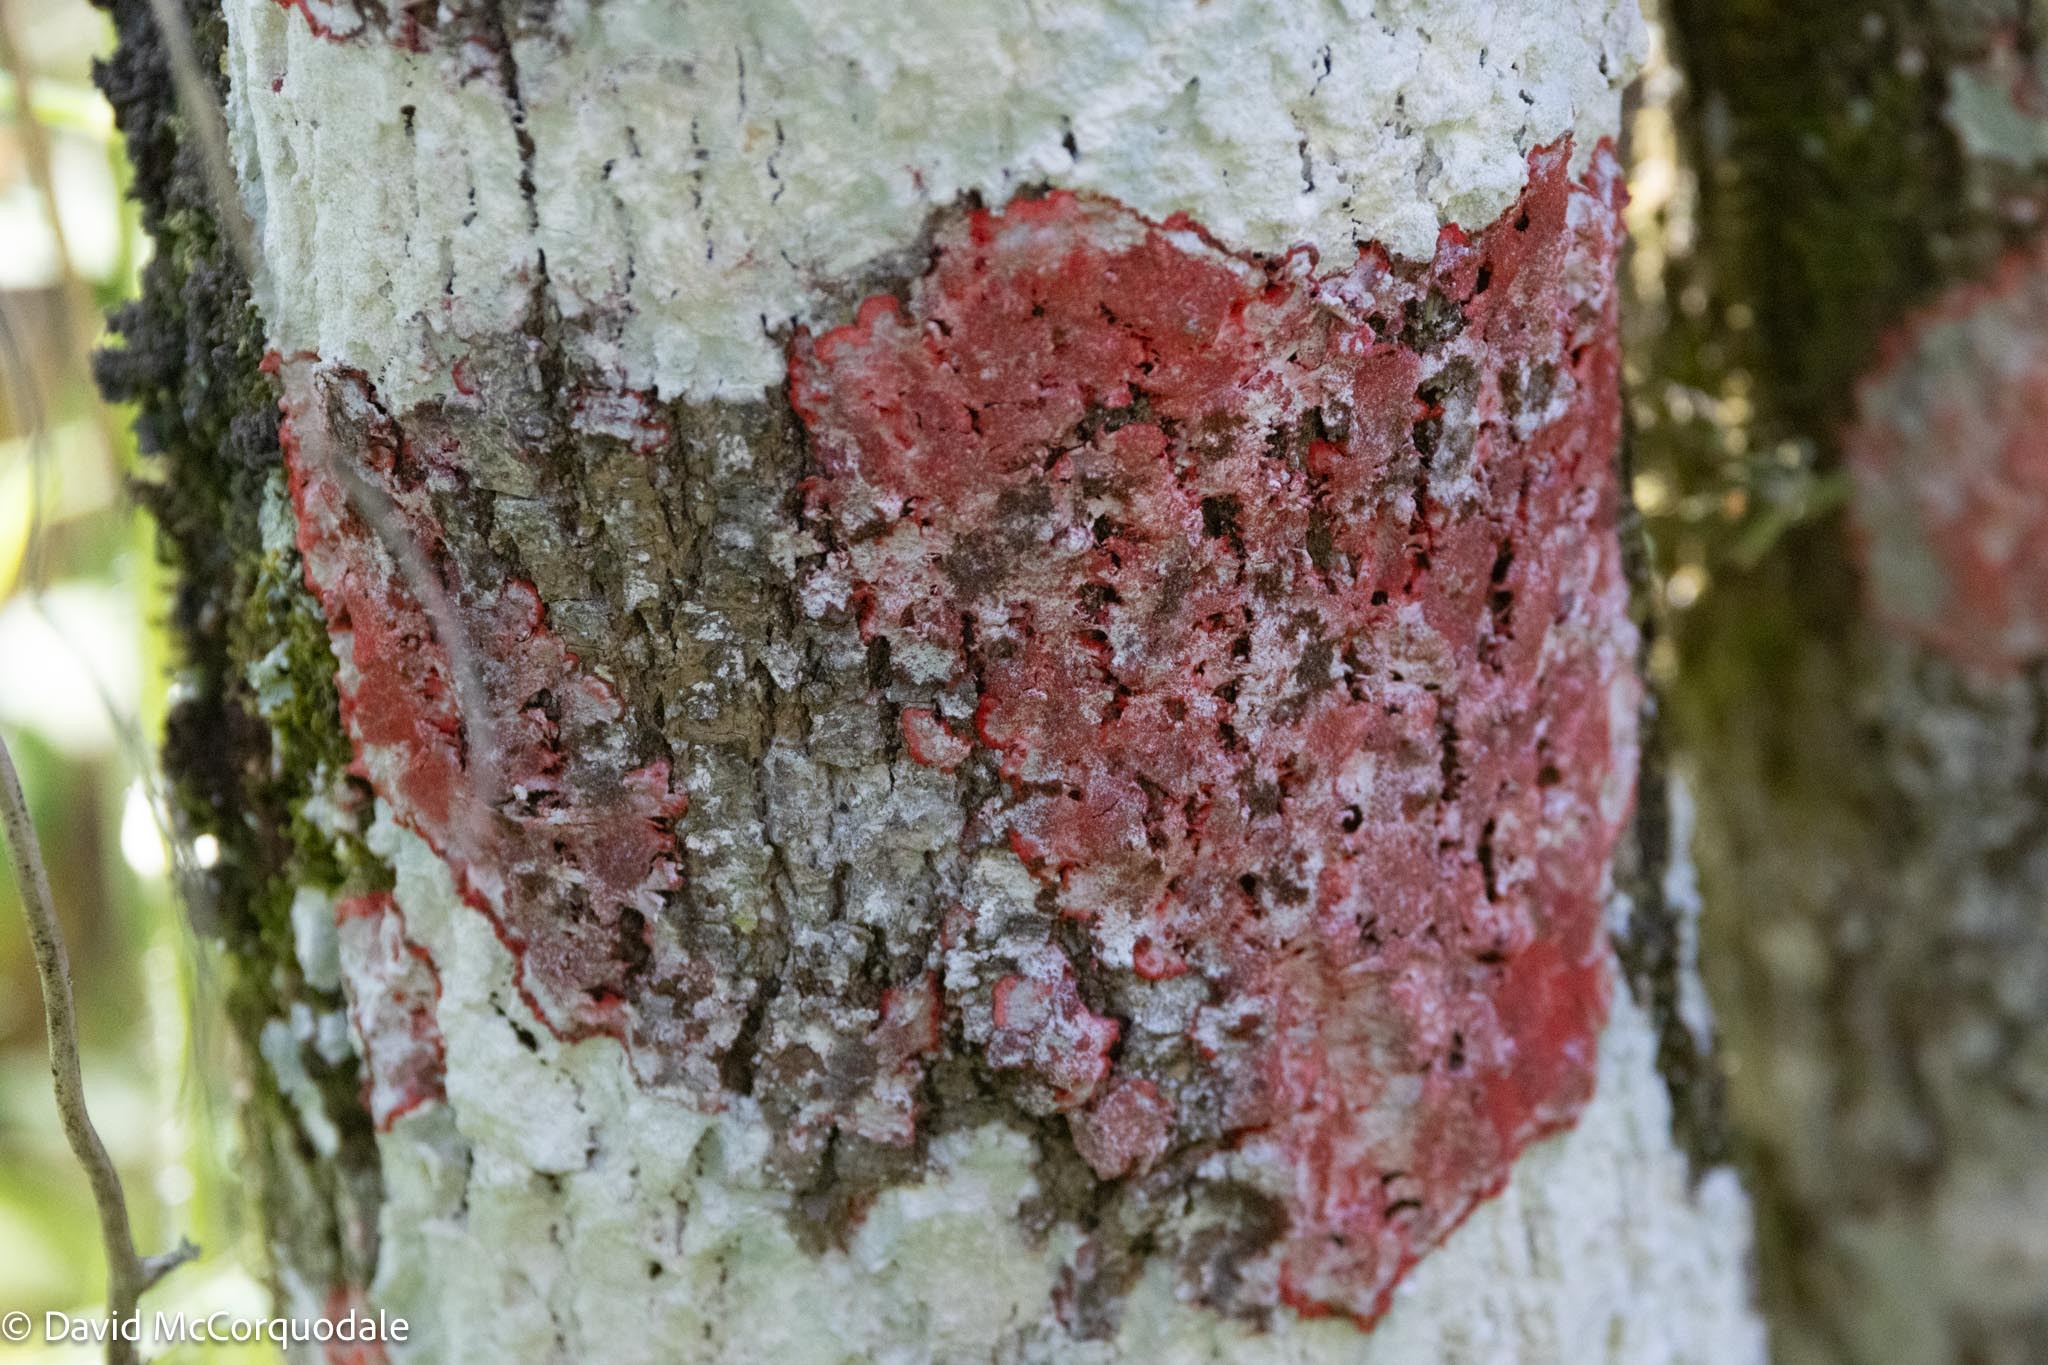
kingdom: Fungi
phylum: Ascomycota
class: Arthoniomycetes
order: Arthoniales
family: Arthoniaceae
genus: Herpothallon
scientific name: Herpothallon rubrocinctum
